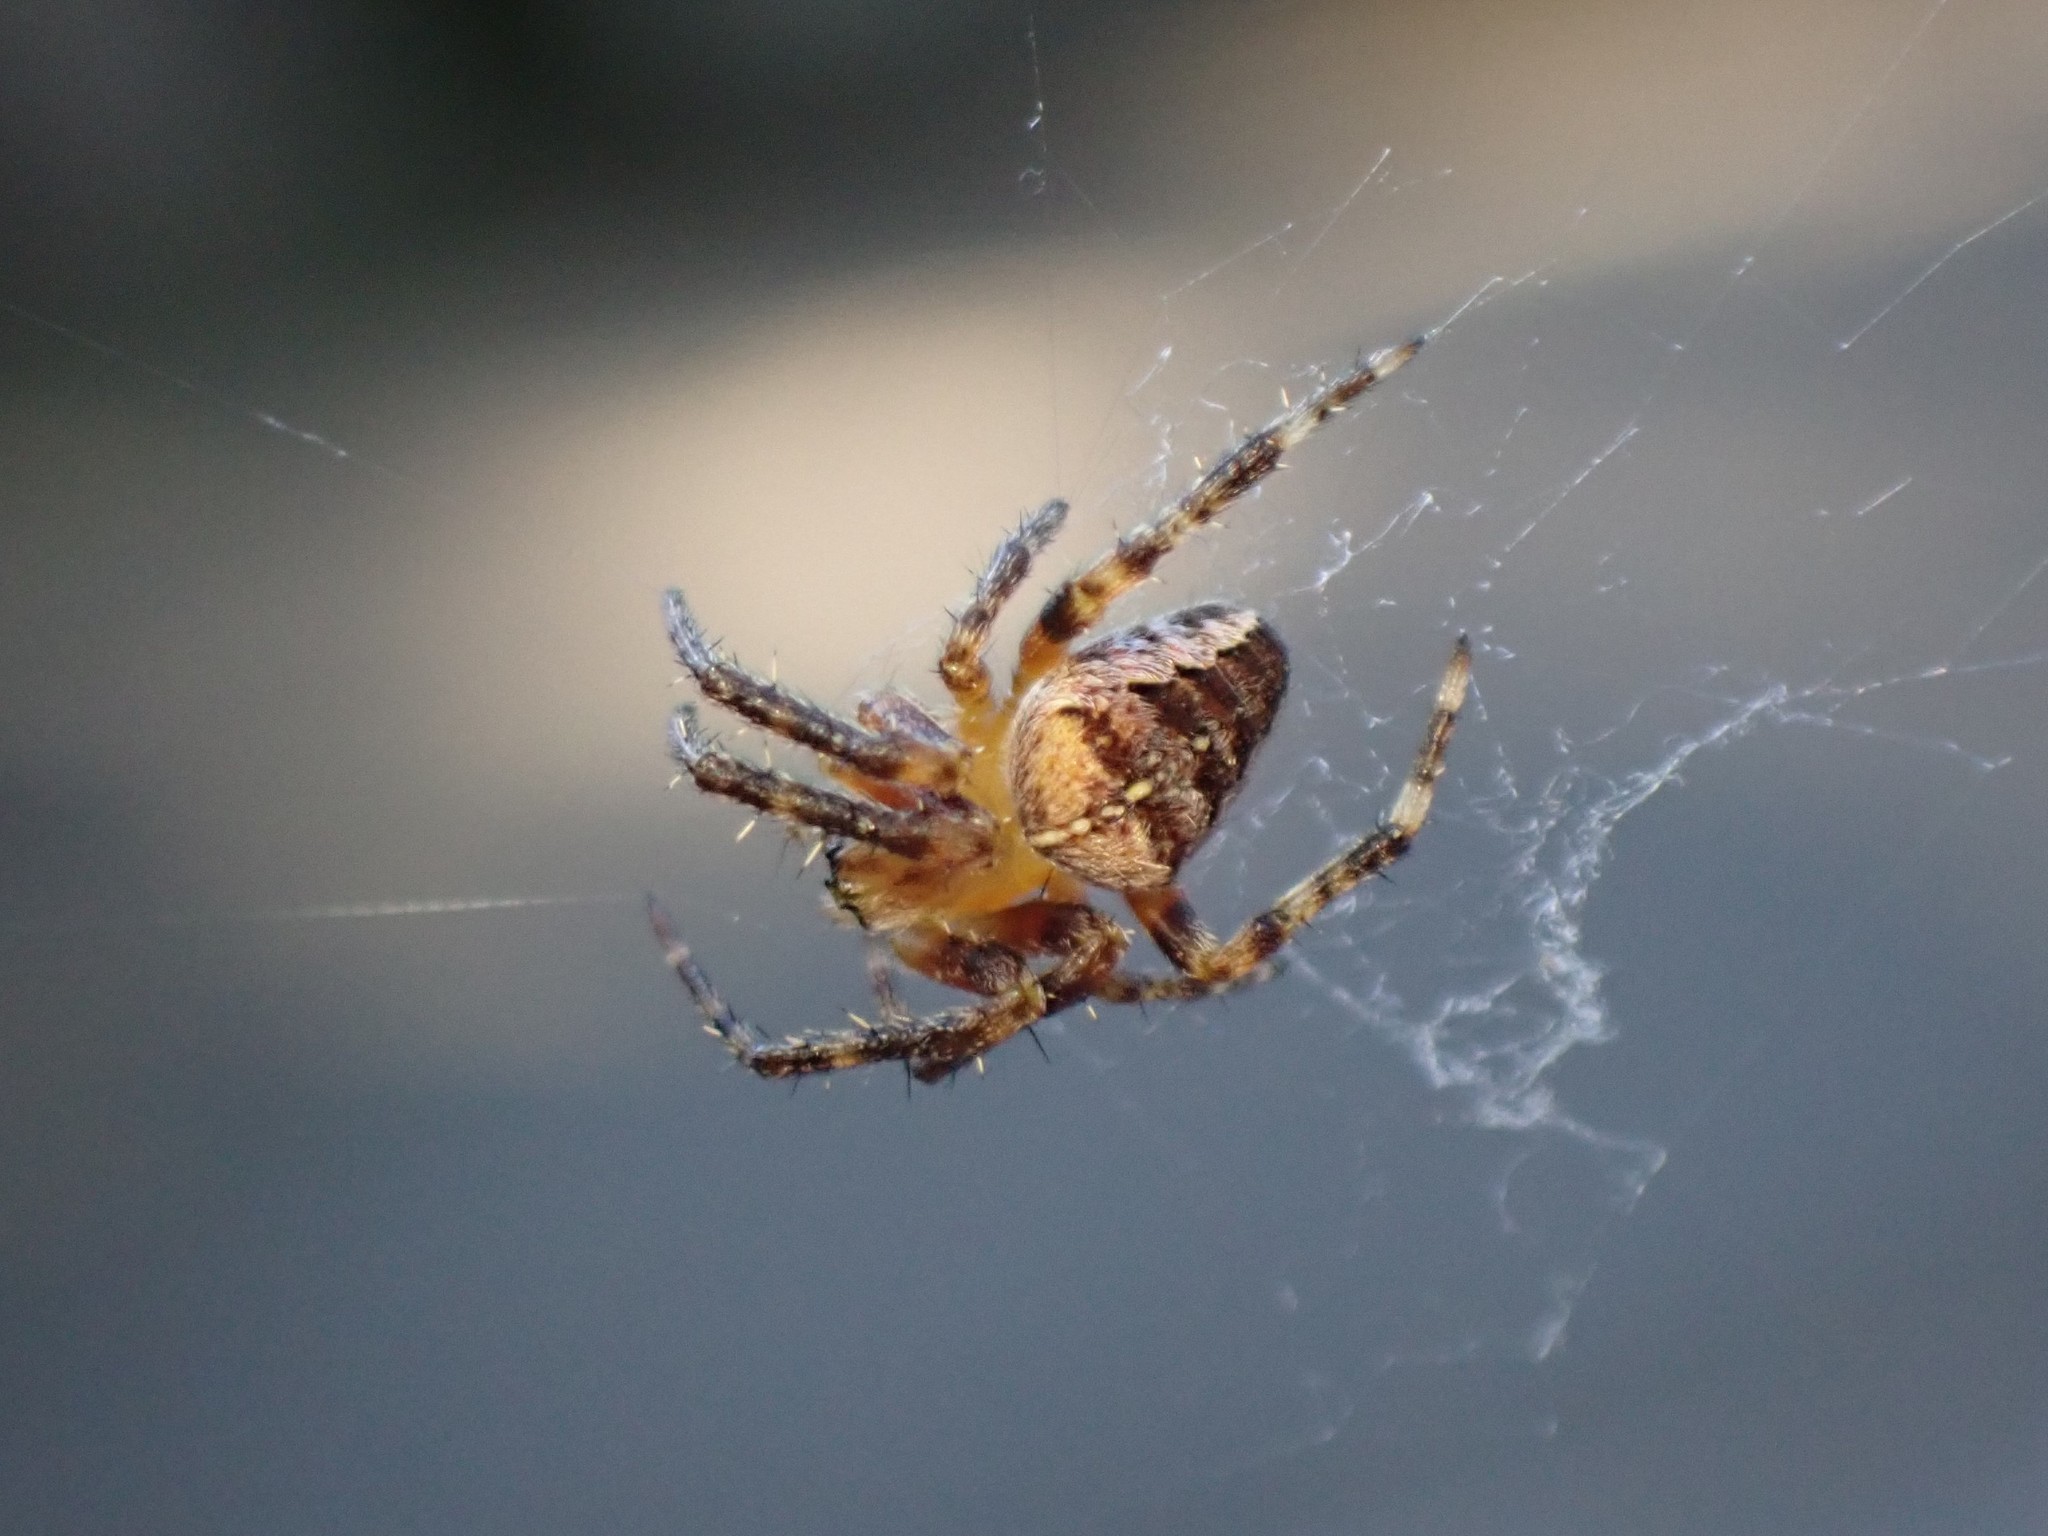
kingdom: Animalia
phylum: Arthropoda
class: Arachnida
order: Araneae
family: Araneidae
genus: Araneus
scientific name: Araneus diadematus
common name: Cross orbweaver
